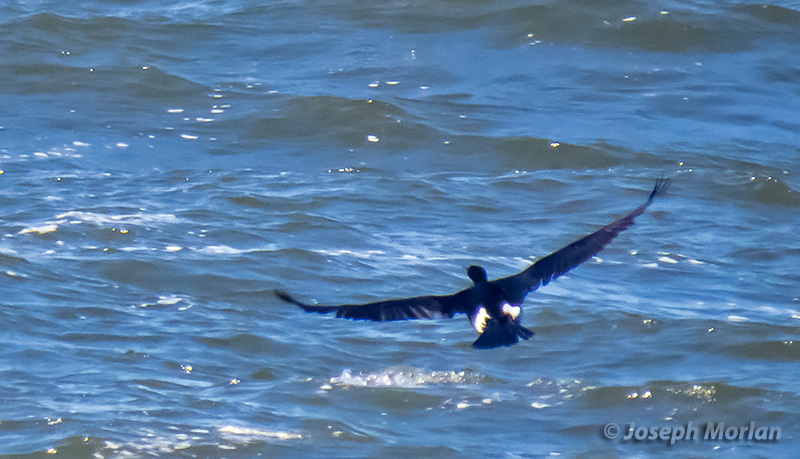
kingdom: Animalia
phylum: Chordata
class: Aves
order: Suliformes
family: Phalacrocoracidae
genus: Phalacrocorax
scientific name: Phalacrocorax pelagicus
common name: Pelagic cormorant
